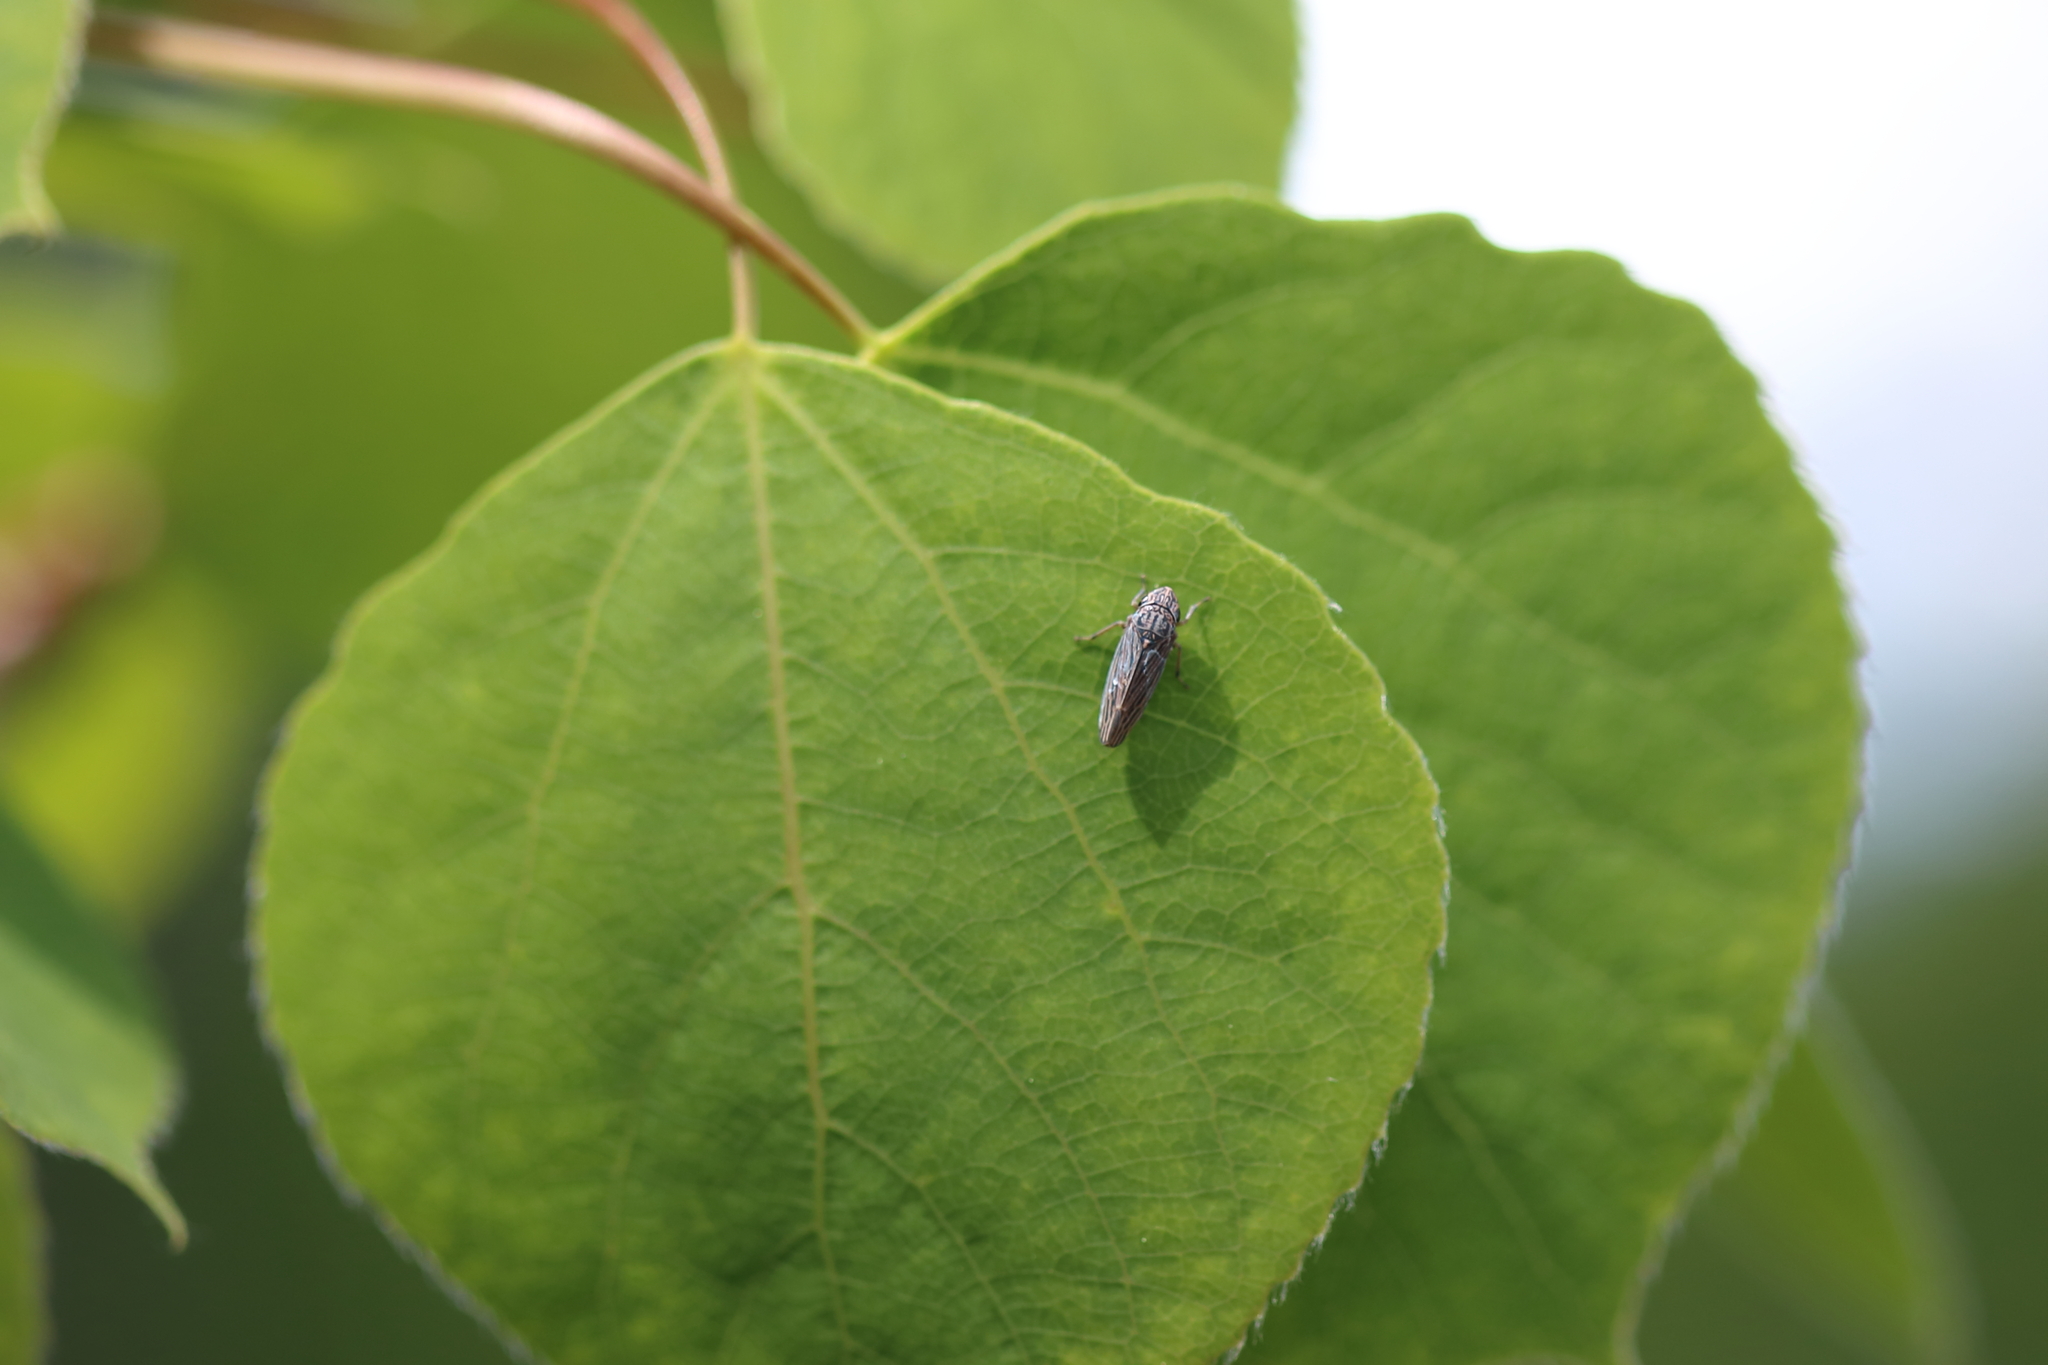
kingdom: Animalia
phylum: Arthropoda
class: Insecta
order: Hemiptera
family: Cicadellidae
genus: Neokolla
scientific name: Neokolla hieroglyphica
